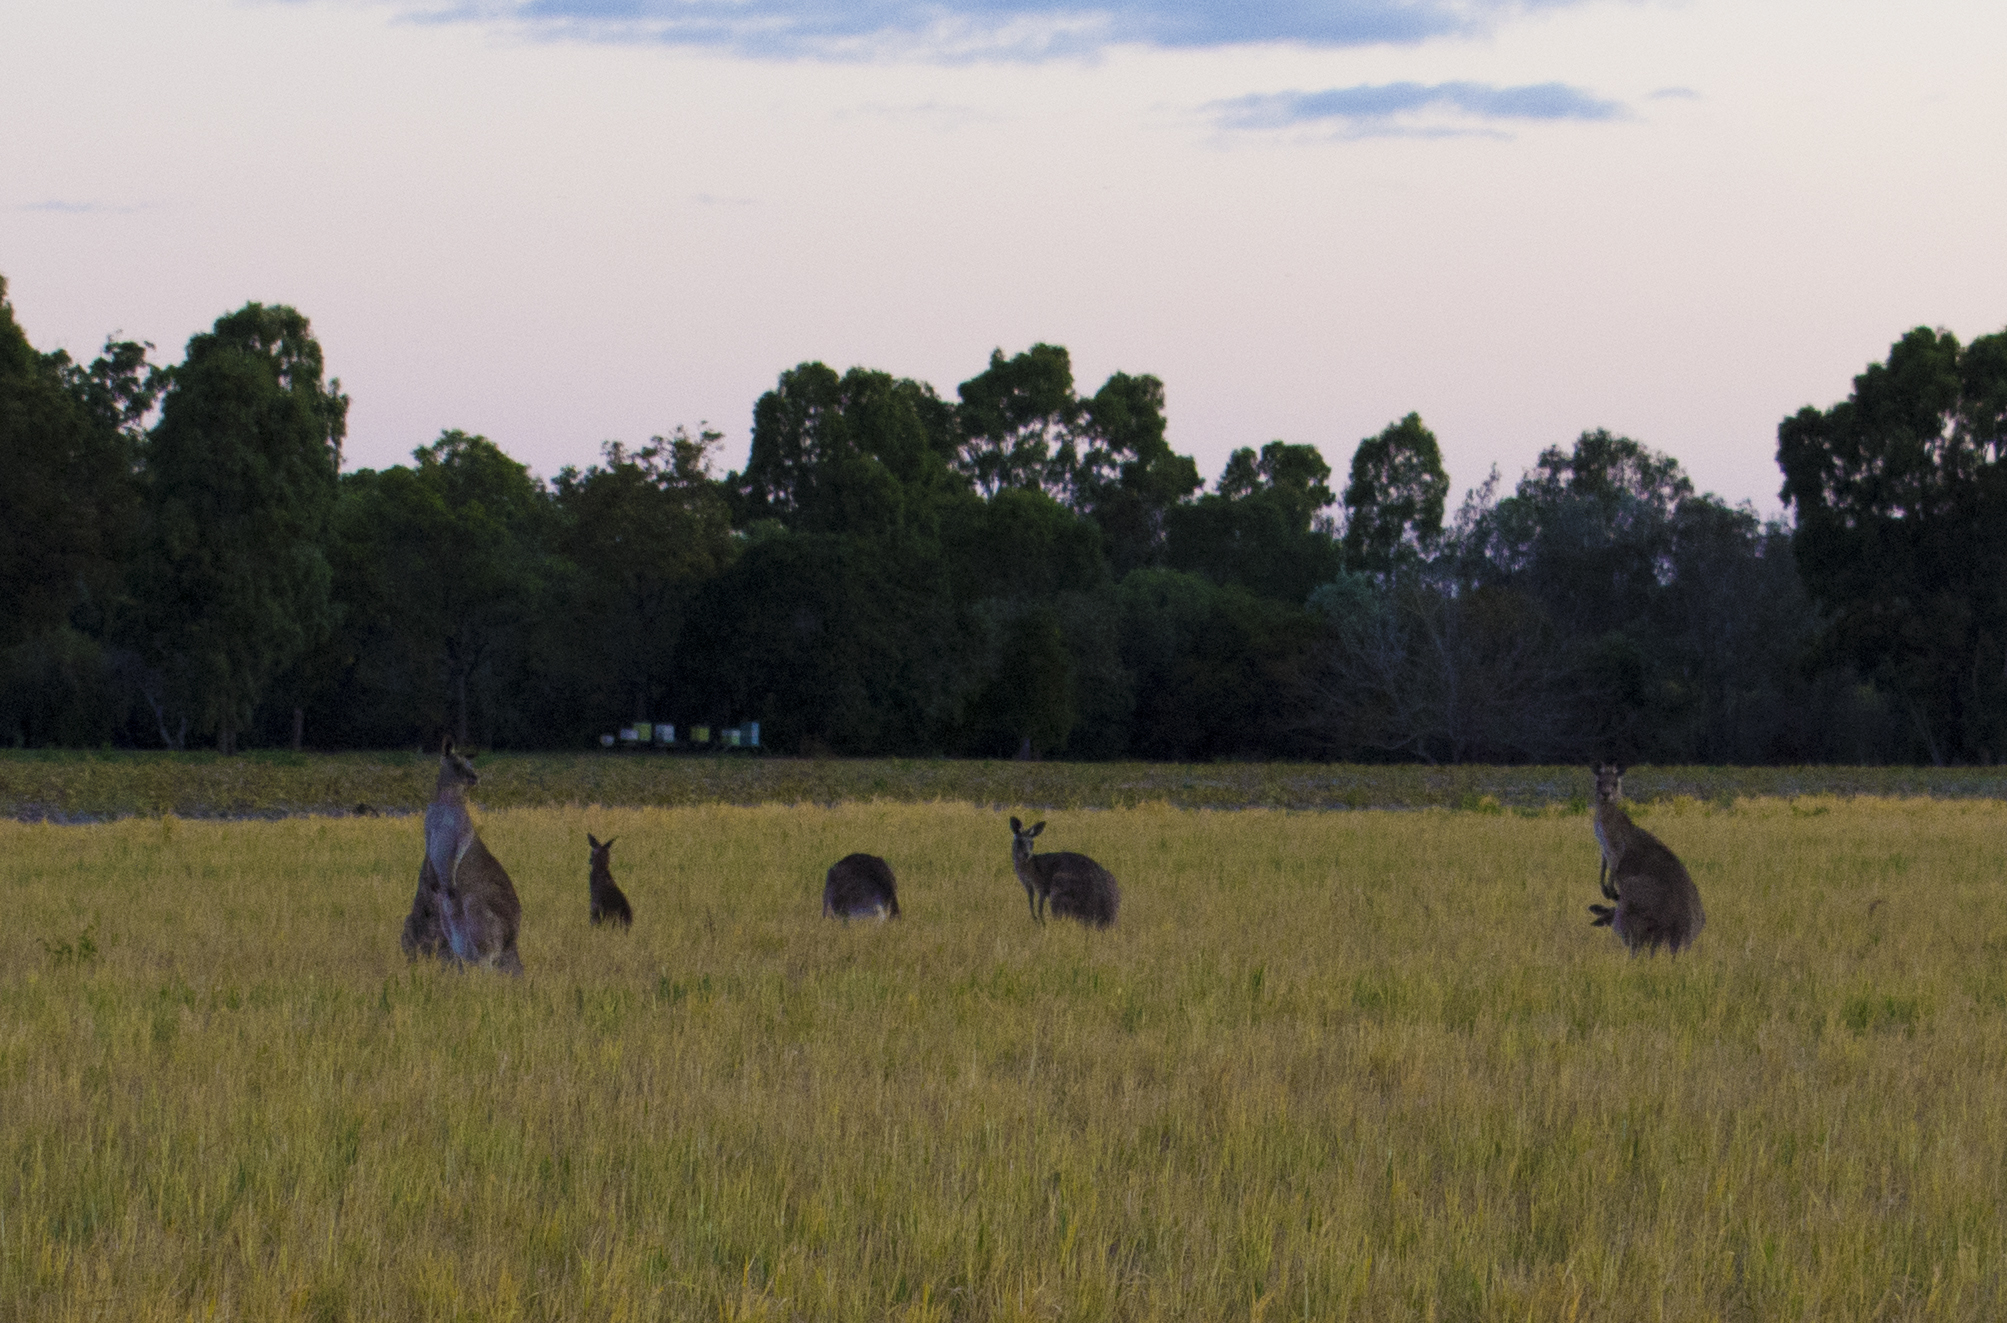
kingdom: Animalia
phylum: Chordata
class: Mammalia
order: Diprotodontia
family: Macropodidae
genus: Macropus
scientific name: Macropus giganteus
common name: Eastern grey kangaroo
